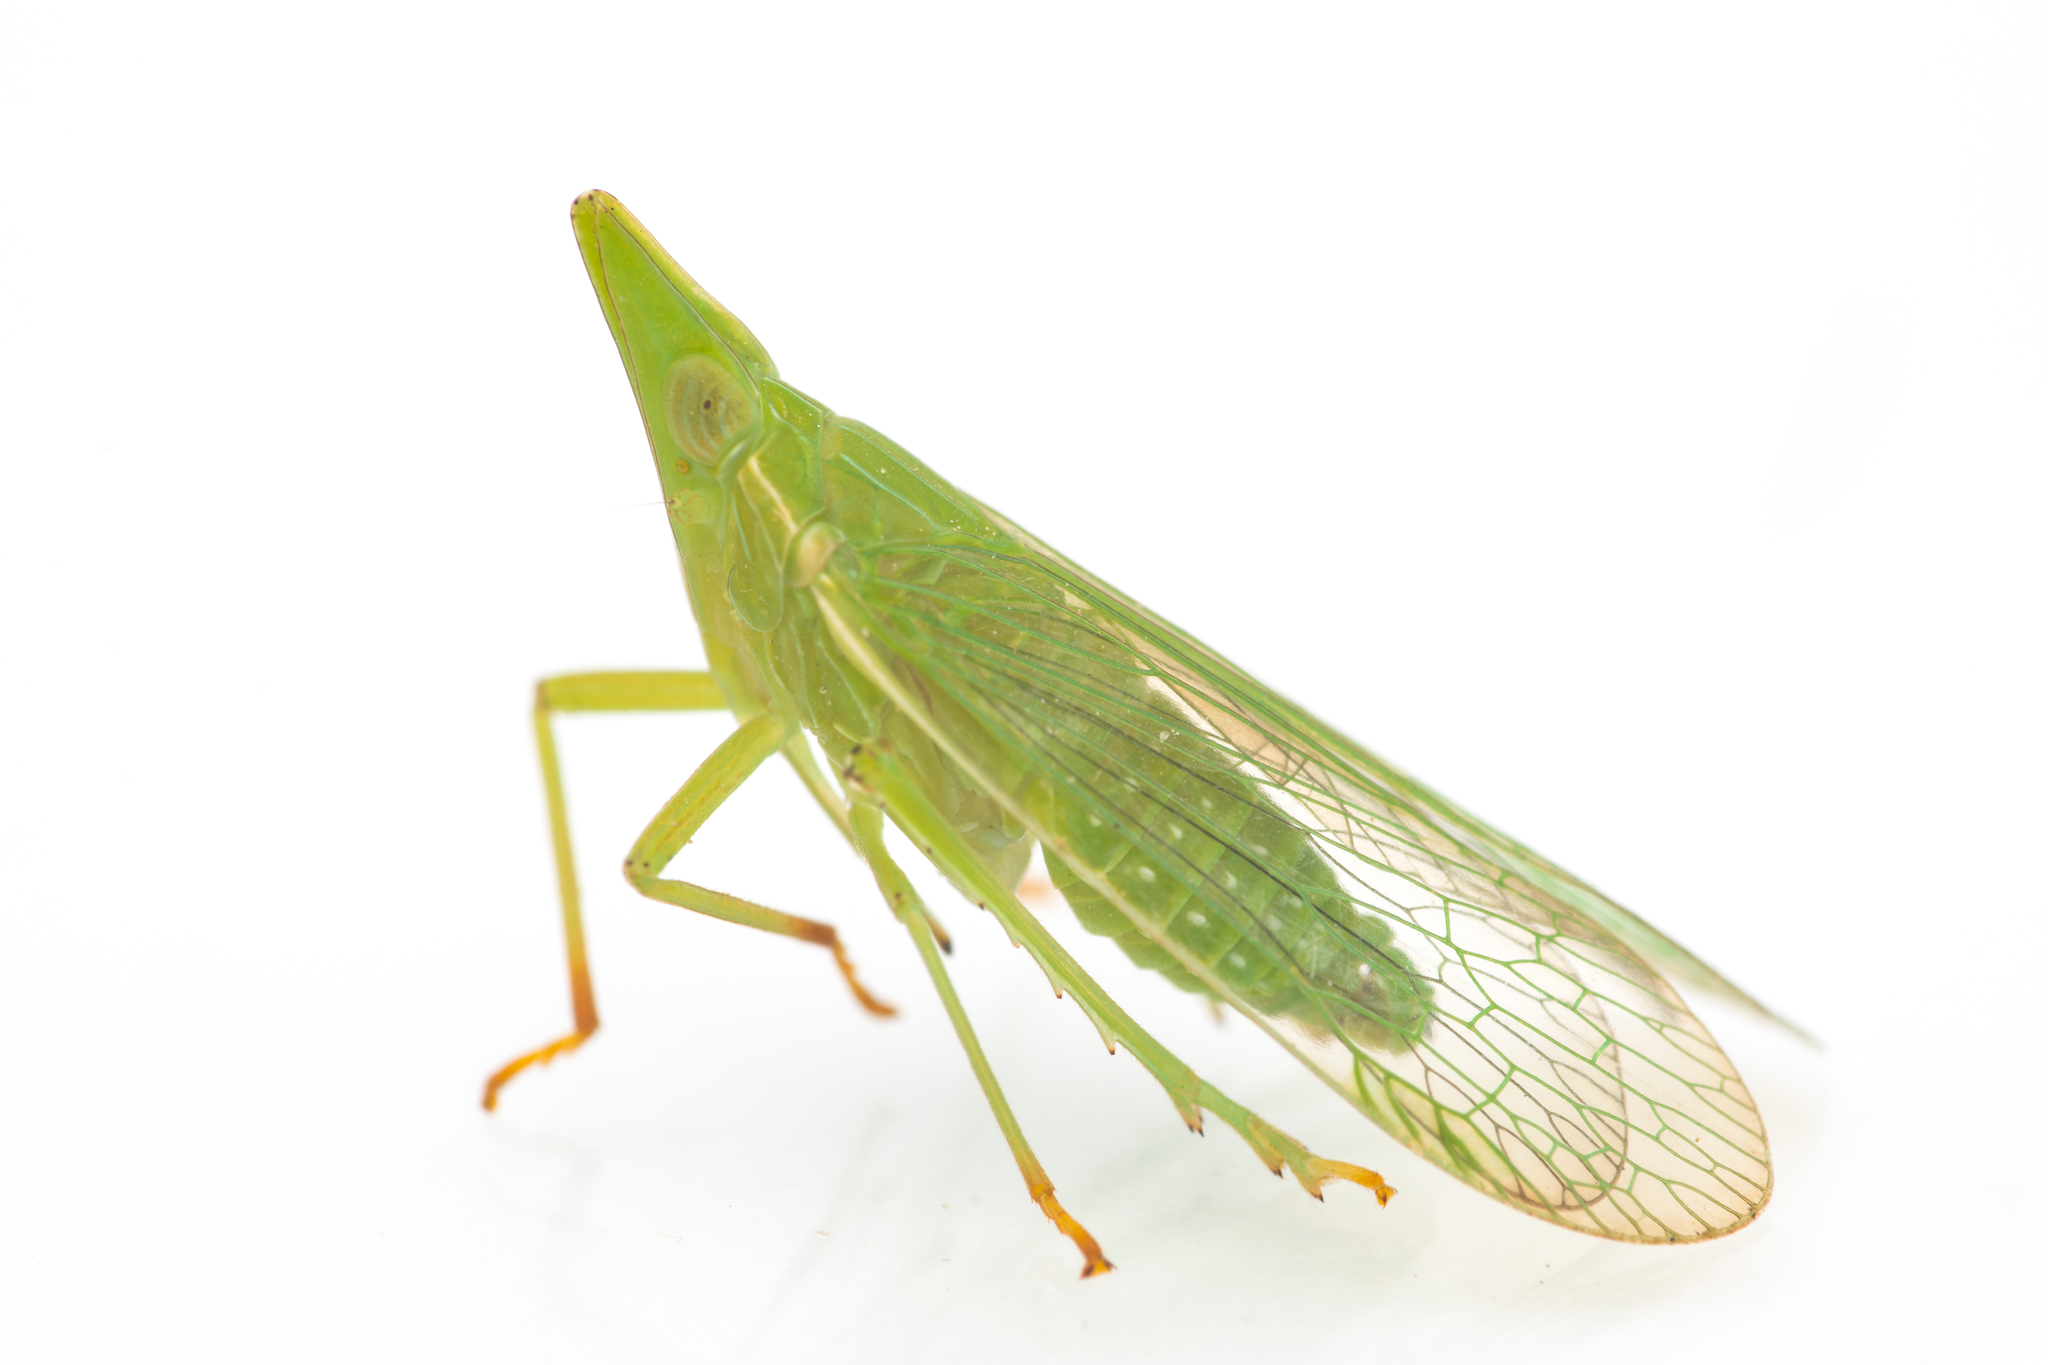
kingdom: Animalia
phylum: Arthropoda
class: Insecta
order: Hemiptera
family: Dictyopharidae
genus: Dictyophara
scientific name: Dictyophara europaea
